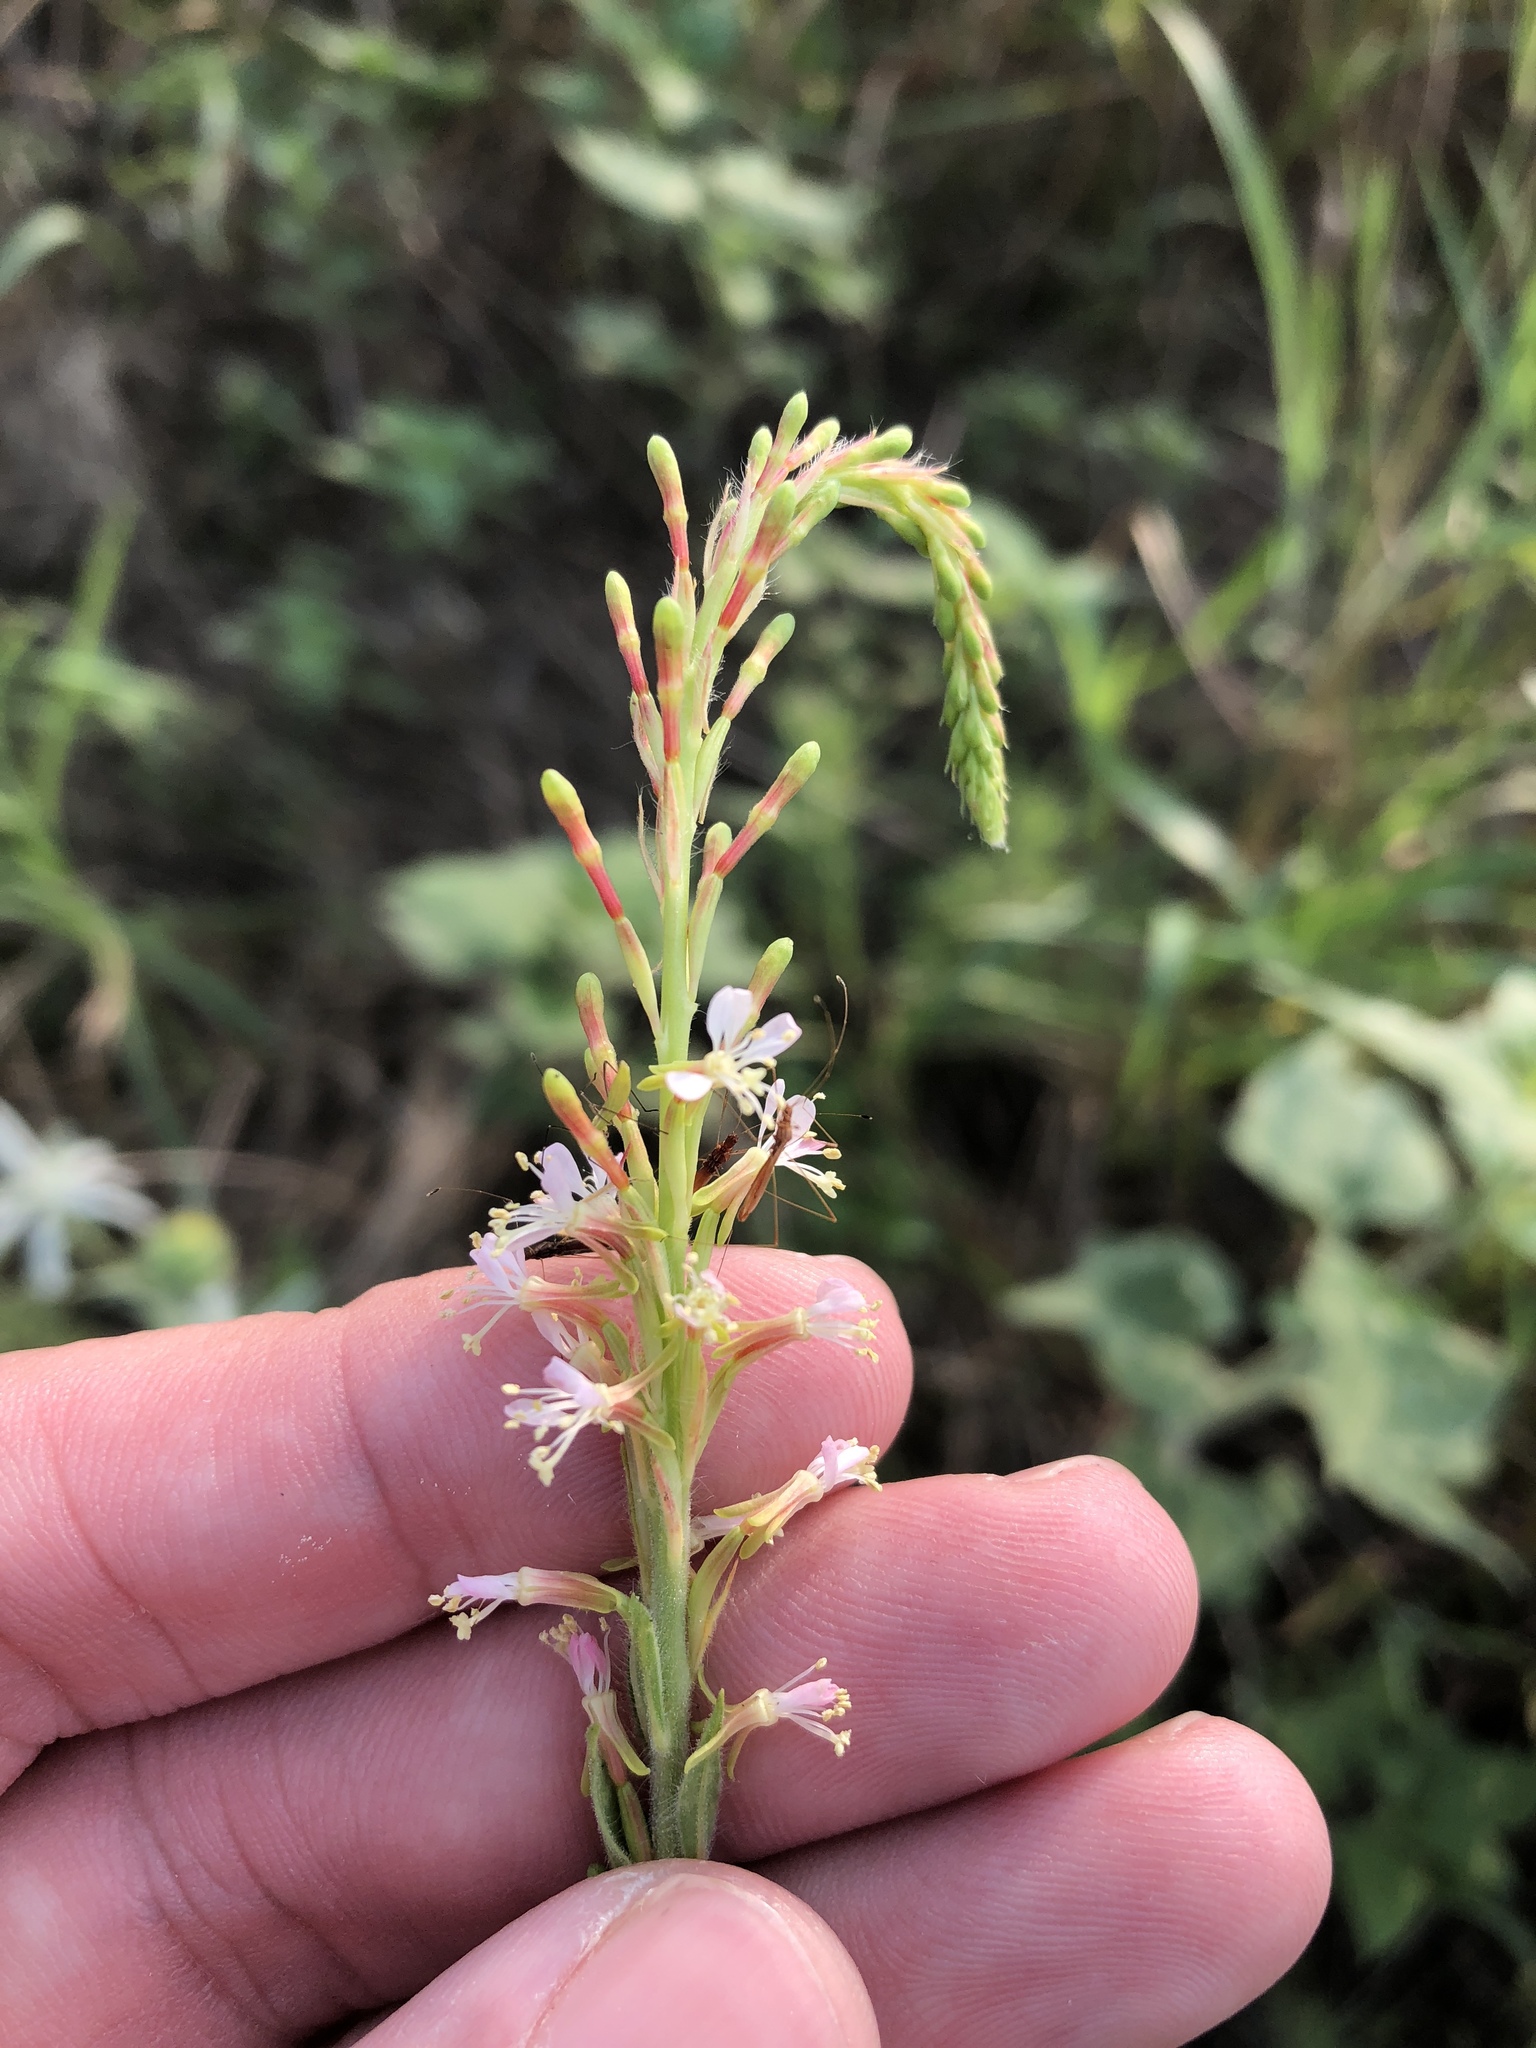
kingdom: Plantae
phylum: Tracheophyta
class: Magnoliopsida
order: Myrtales
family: Onagraceae
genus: Oenothera
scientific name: Oenothera curtiflora
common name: Velvetweed
